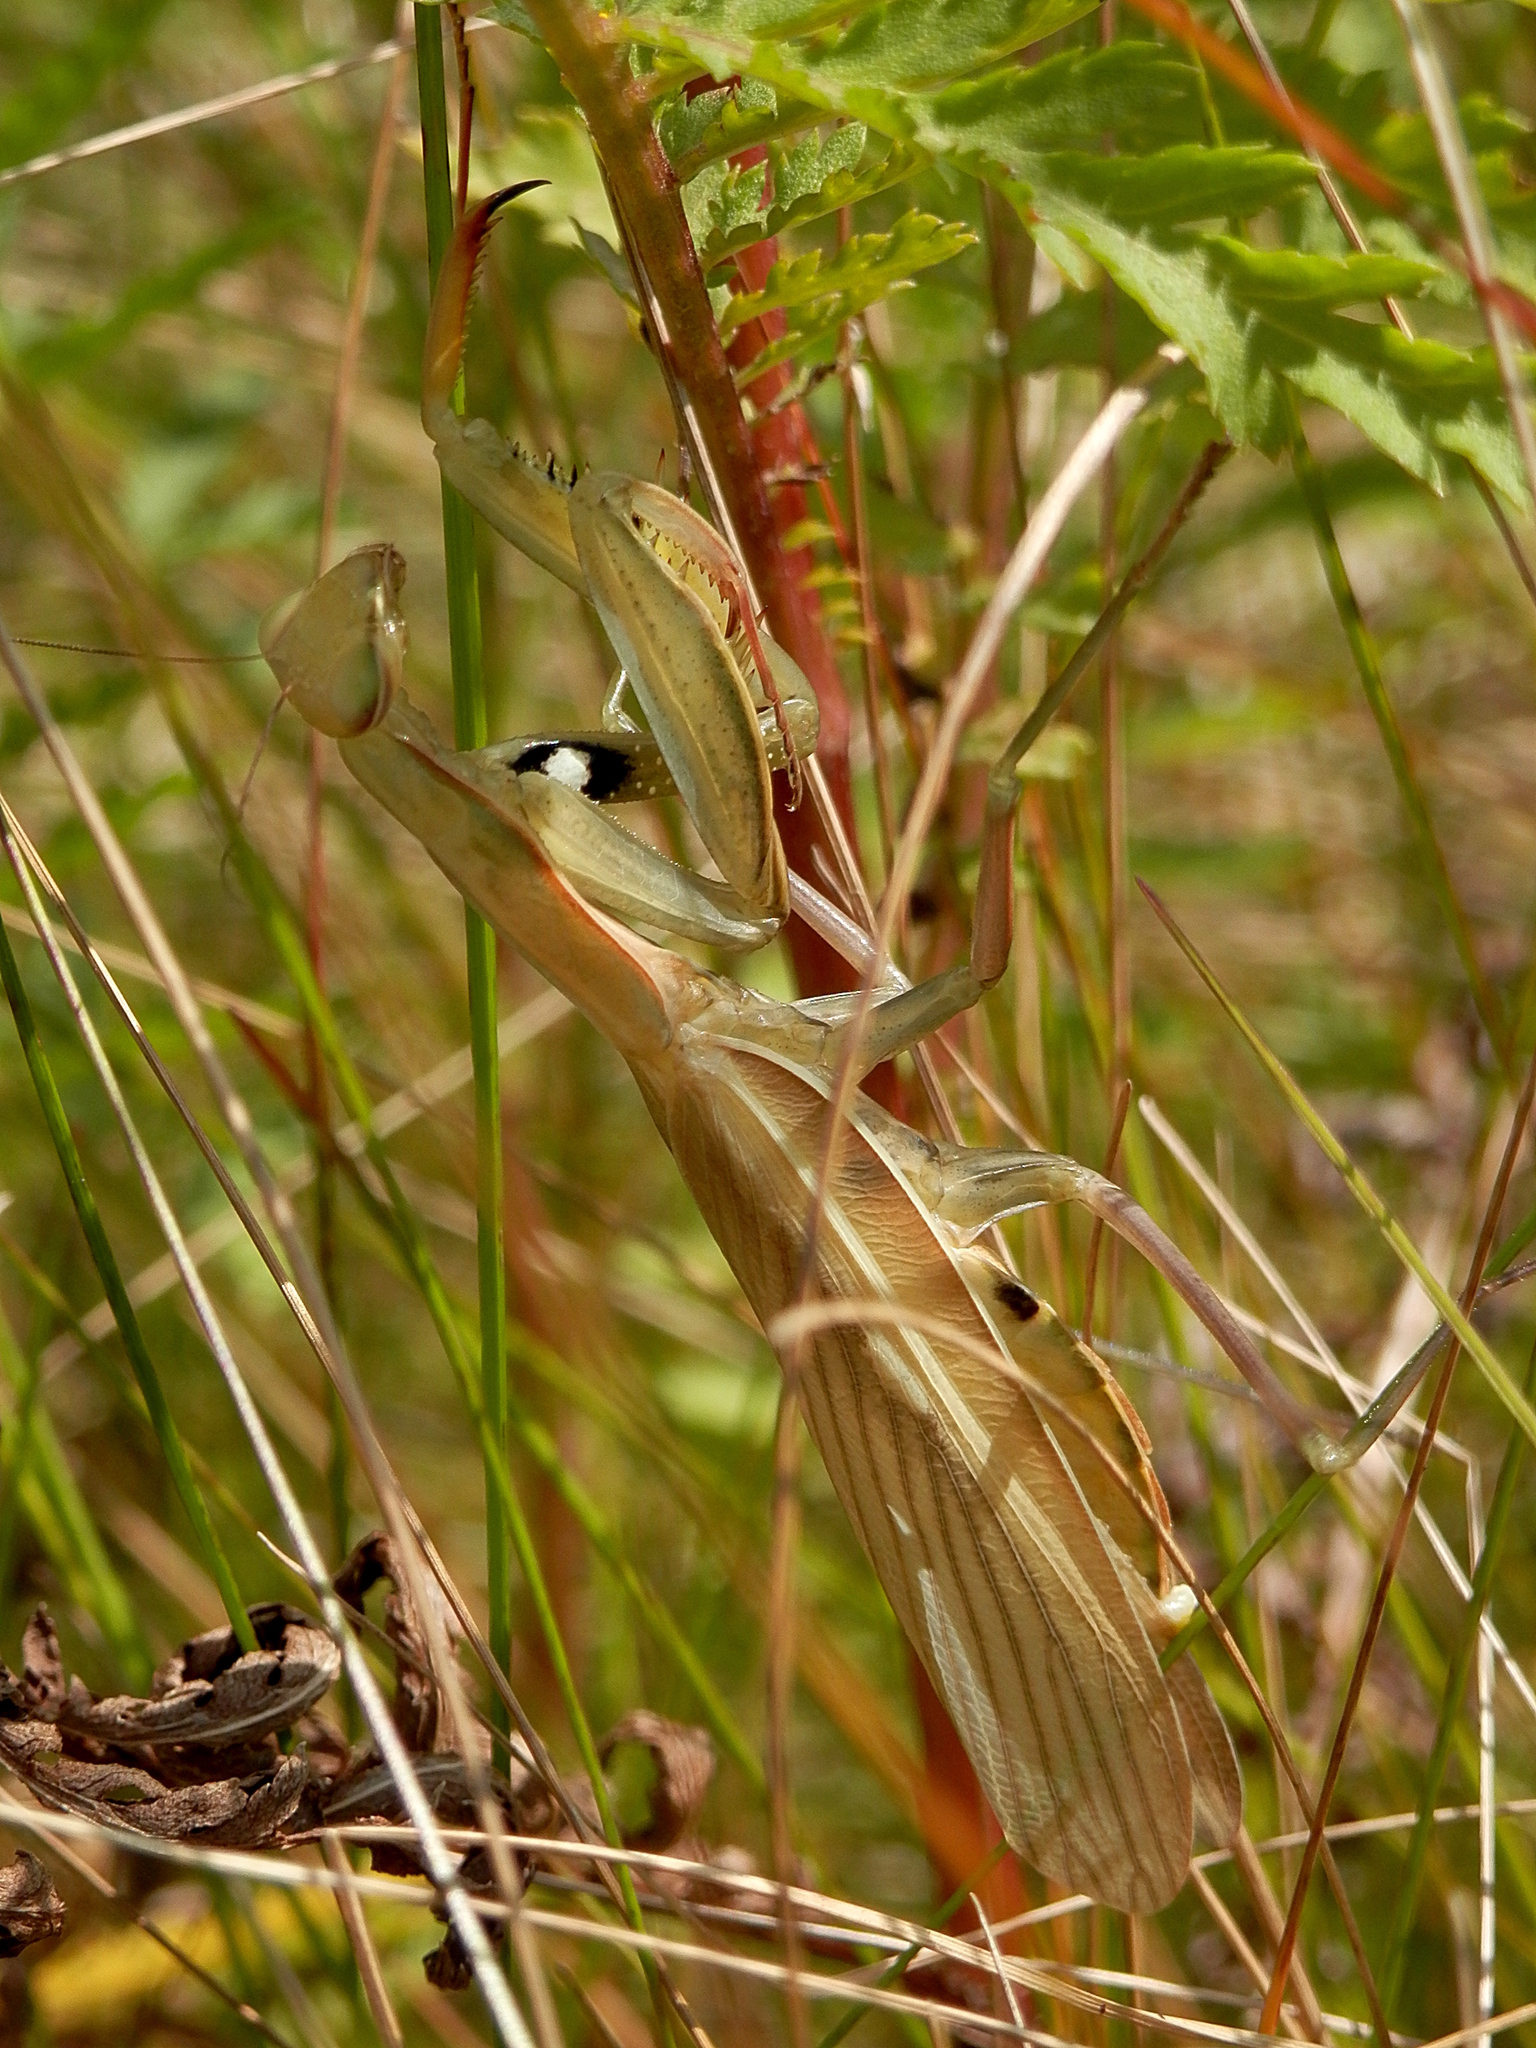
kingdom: Animalia
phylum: Arthropoda
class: Insecta
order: Mantodea
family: Mantidae
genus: Mantis
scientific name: Mantis religiosa
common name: Praying mantis
